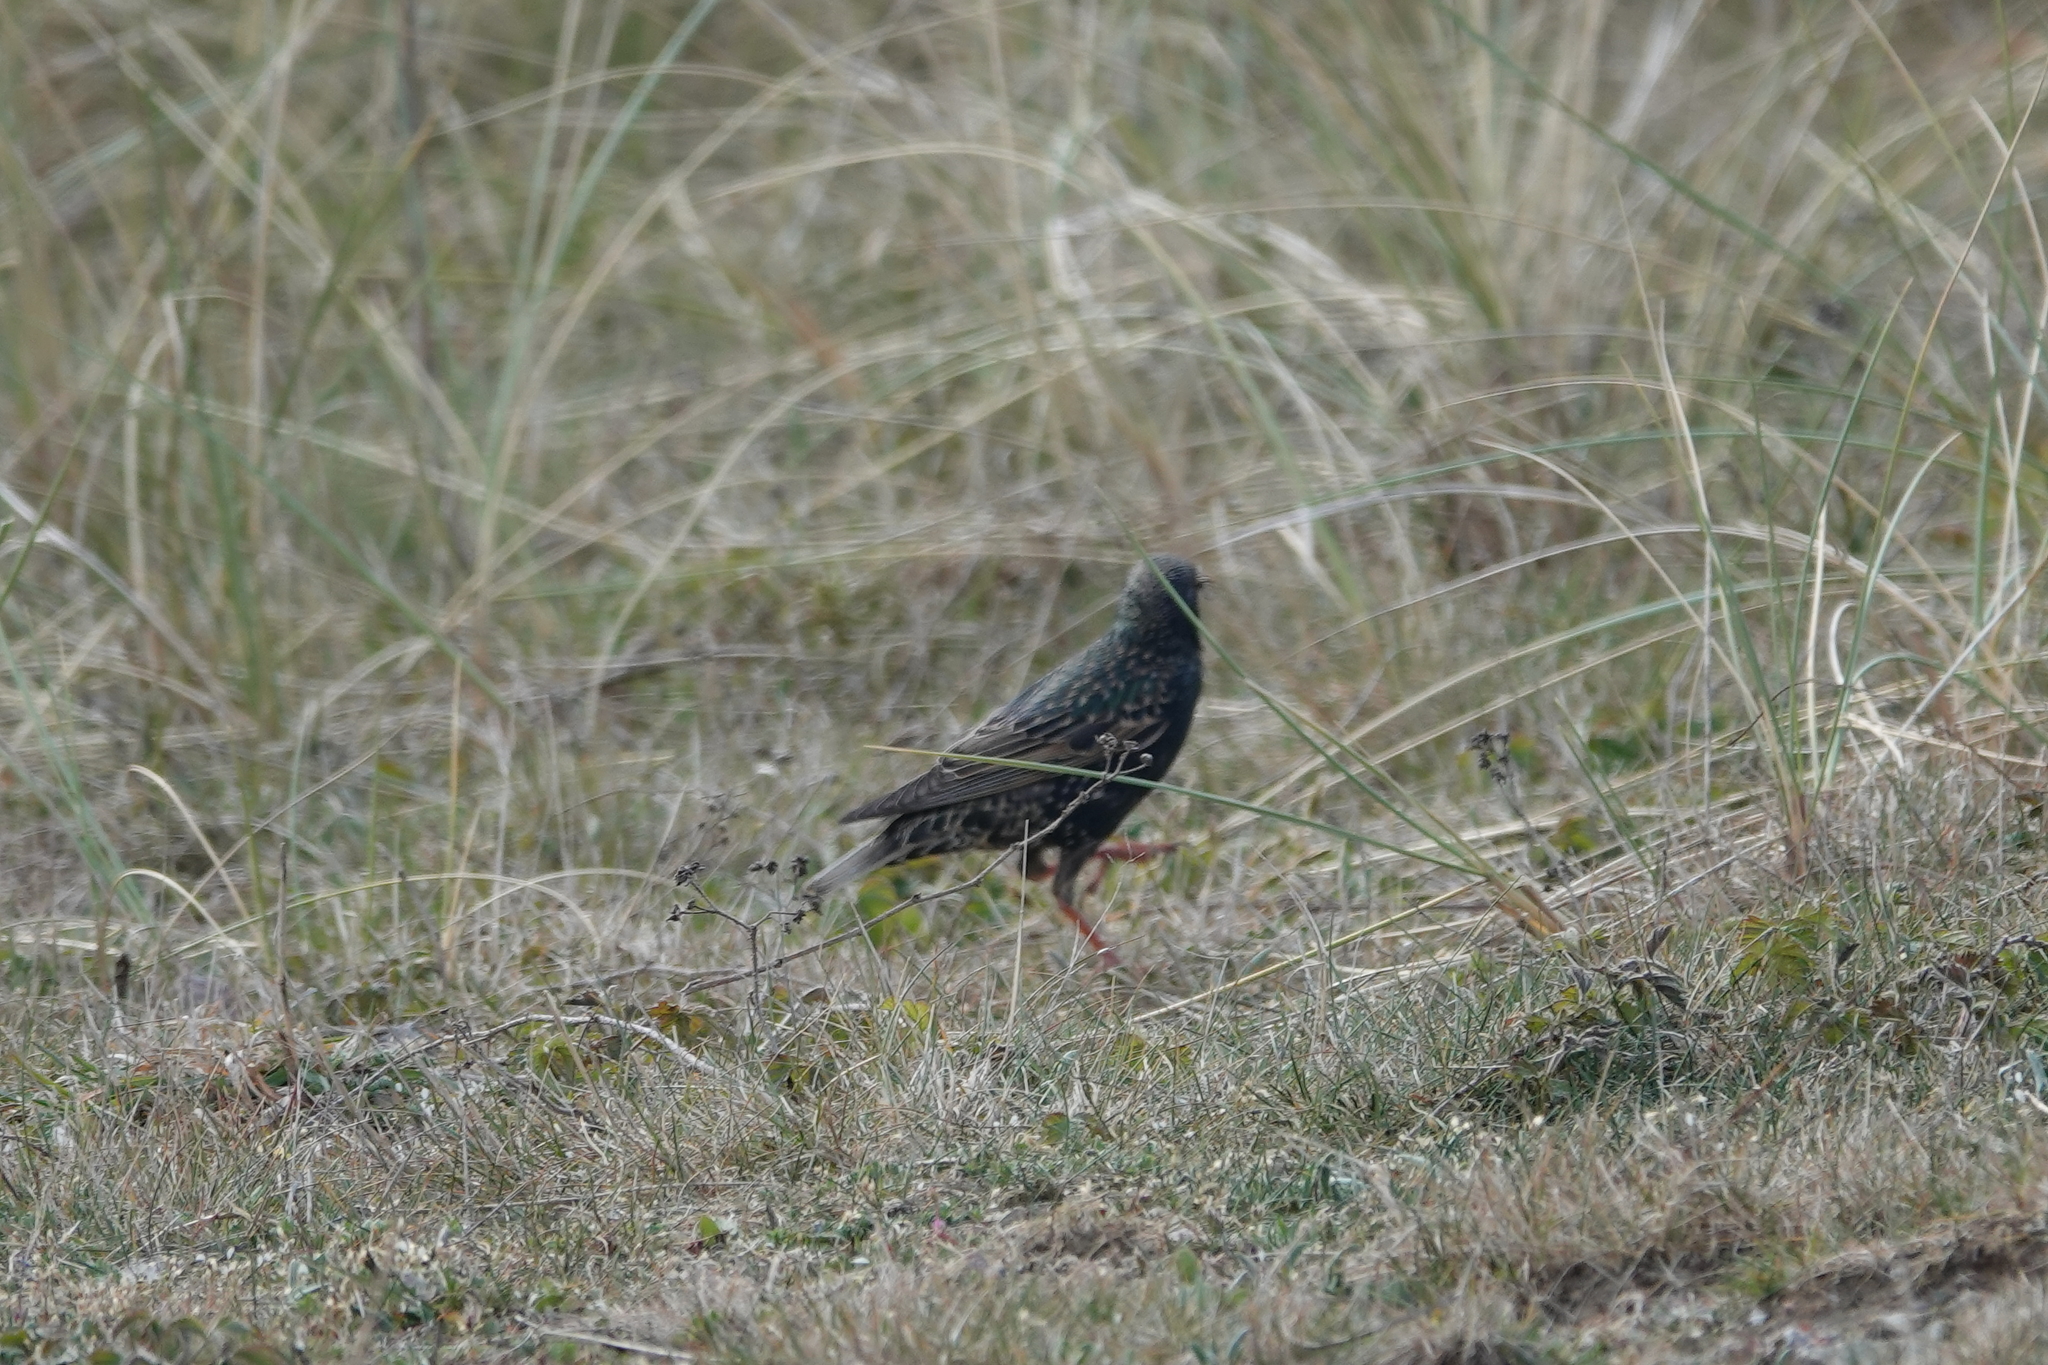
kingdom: Animalia
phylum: Chordata
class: Aves
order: Passeriformes
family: Sturnidae
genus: Sturnus
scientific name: Sturnus vulgaris
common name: Common starling
